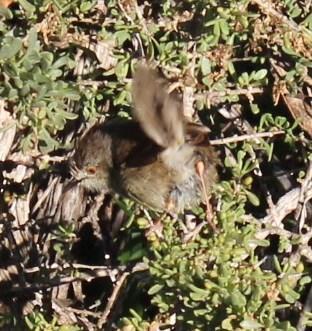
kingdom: Animalia
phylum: Chordata
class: Aves
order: Passeriformes
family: Cisticolidae
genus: Prinia
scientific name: Prinia maculosa
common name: Karoo prinia
